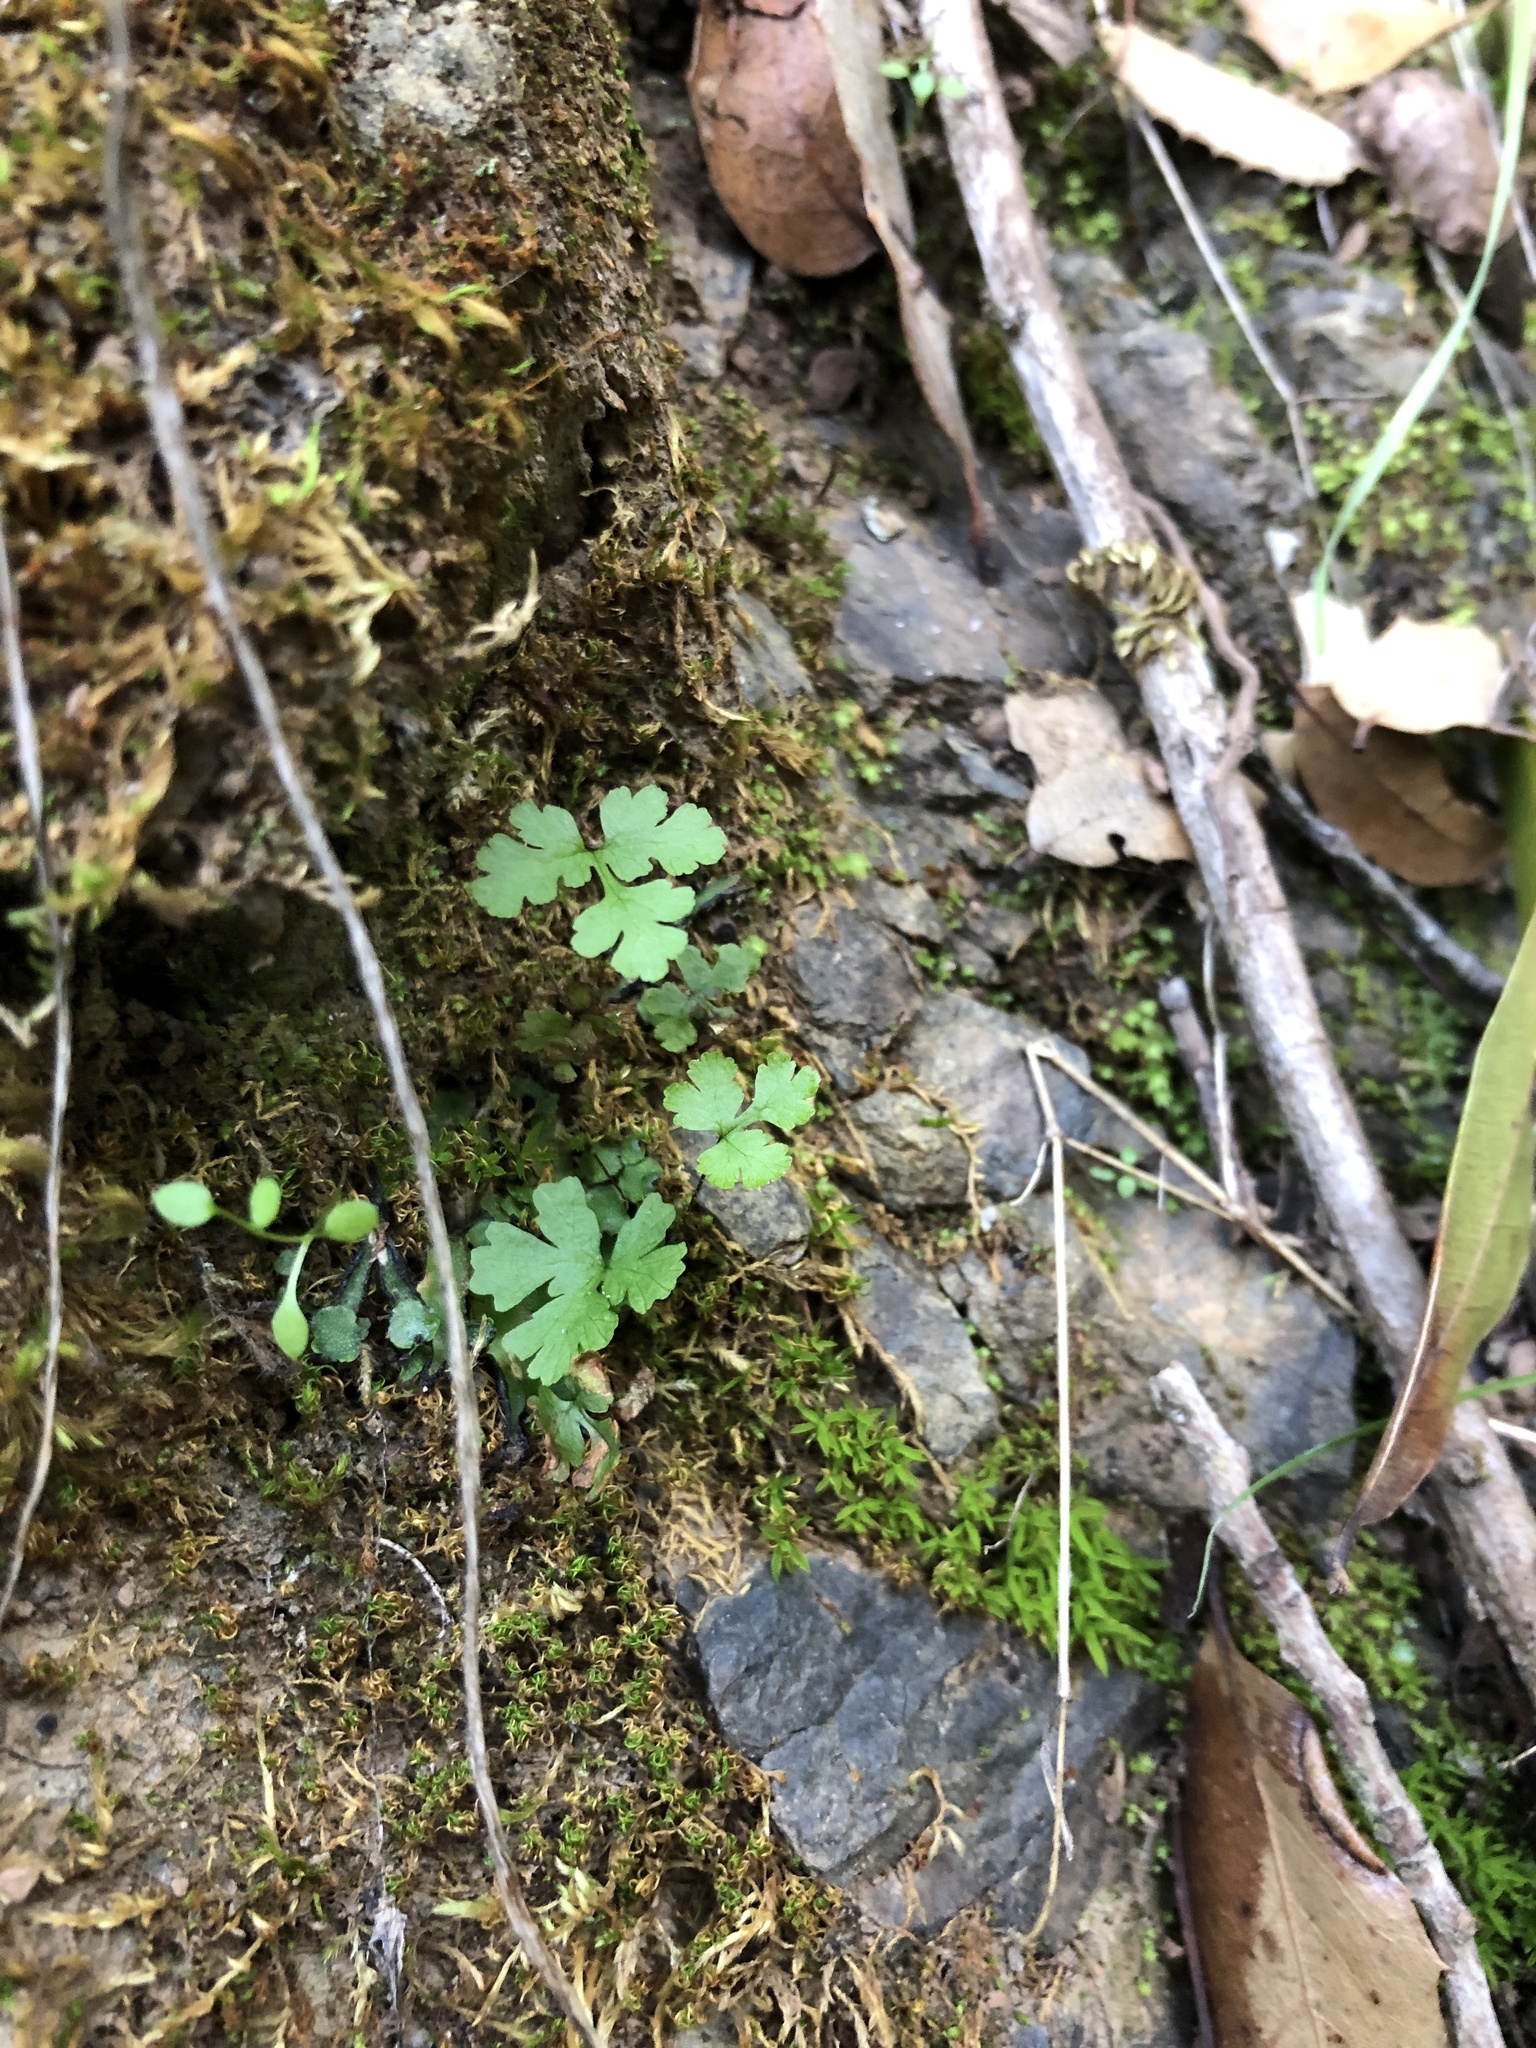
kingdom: Plantae
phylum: Tracheophyta
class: Polypodiopsida
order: Polypodiales
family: Pteridaceae
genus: Pentagramma
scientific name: Pentagramma triangularis
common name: Gold fern
